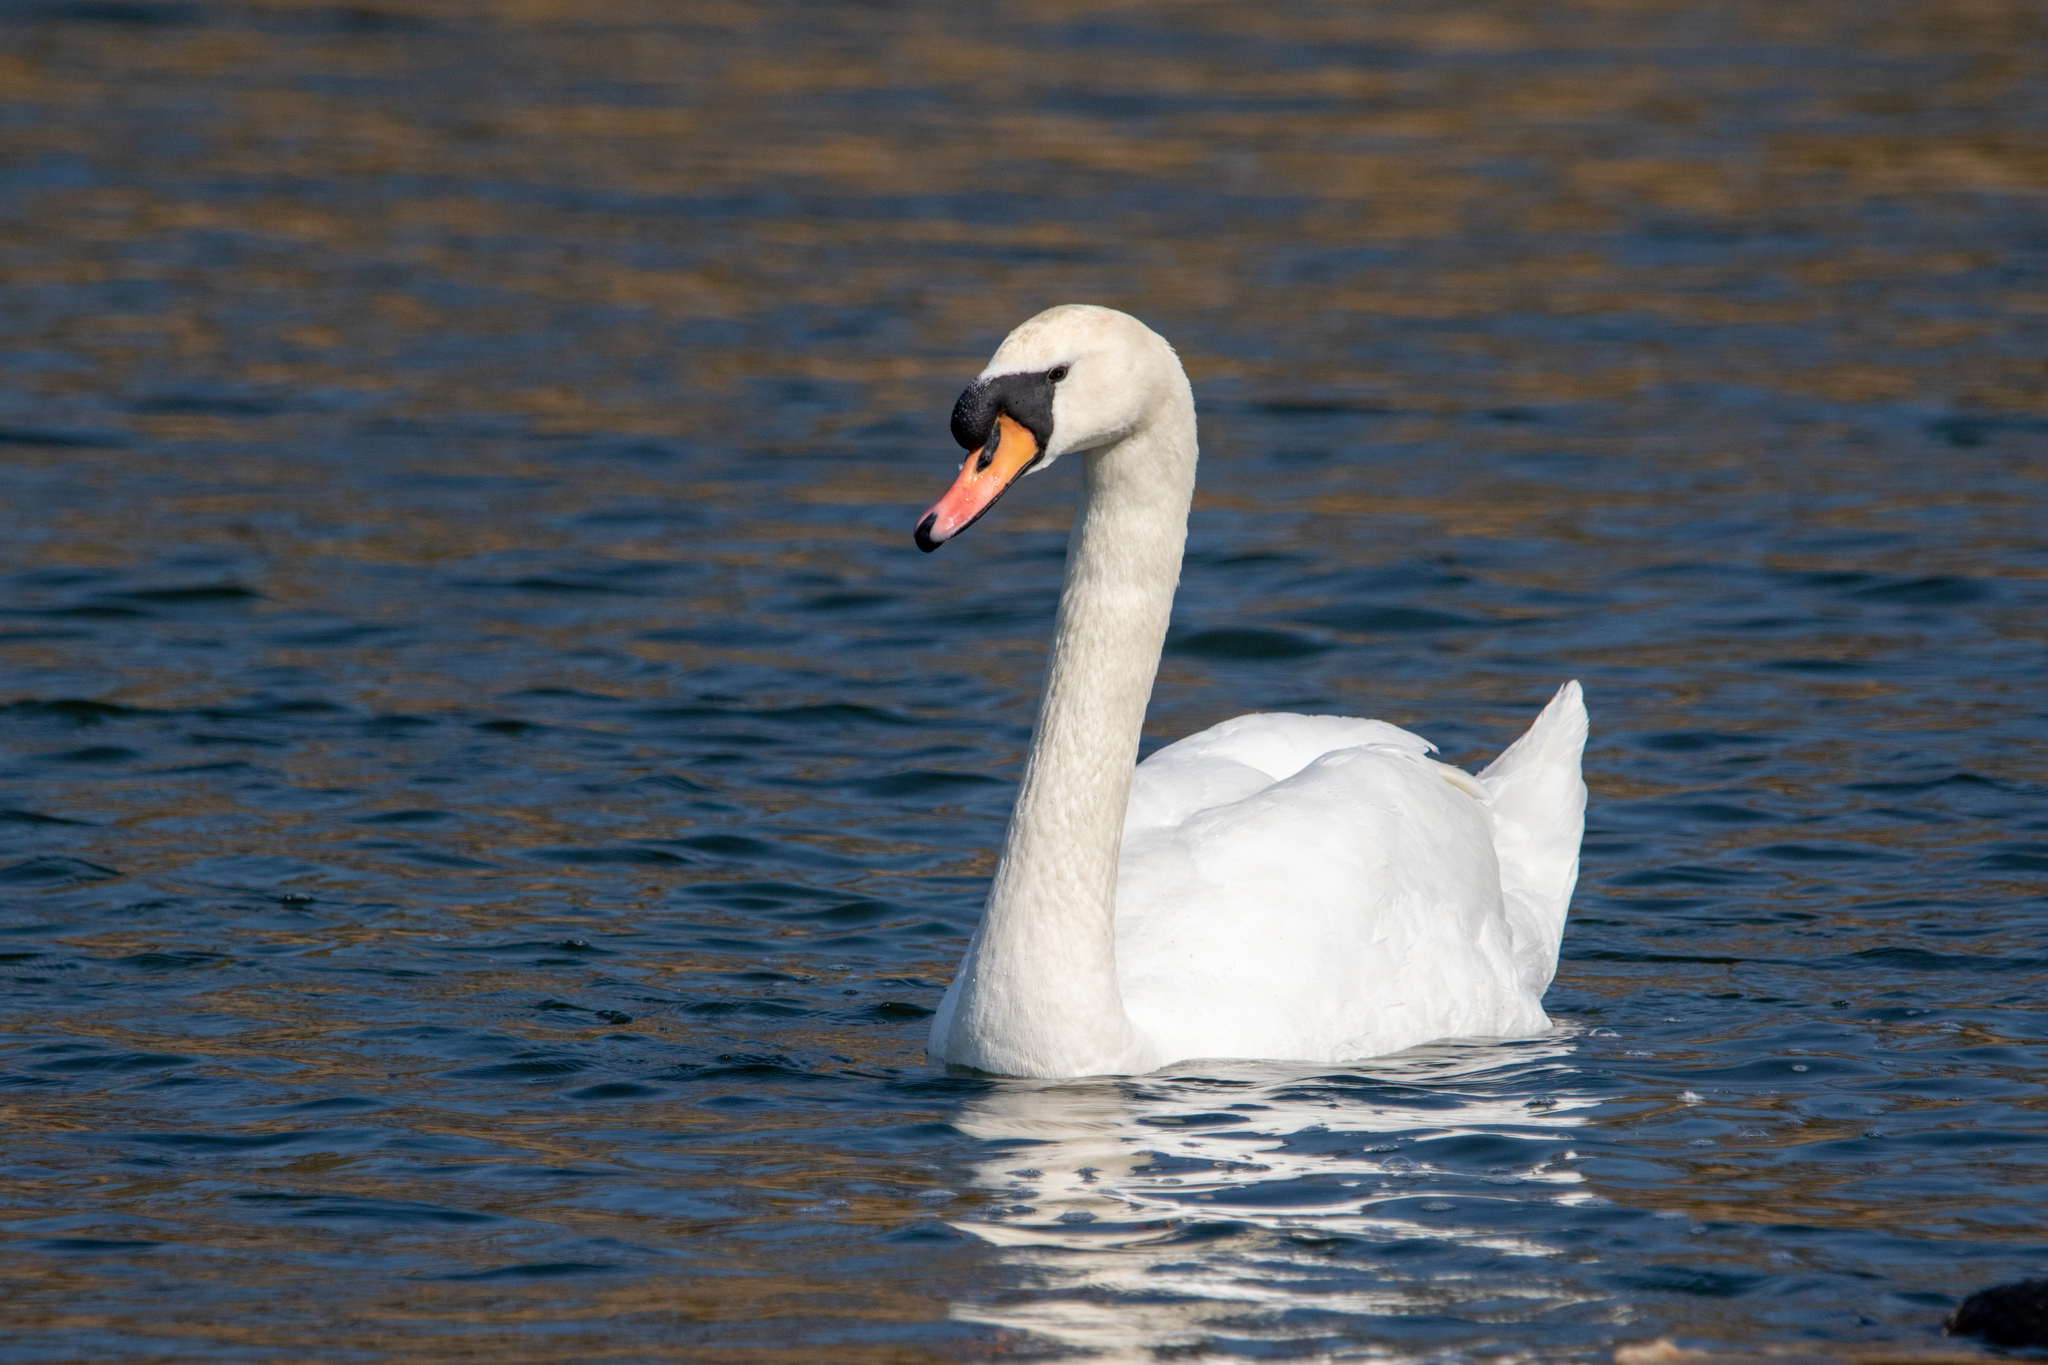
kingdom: Animalia
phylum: Chordata
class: Aves
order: Anseriformes
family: Anatidae
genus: Cygnus
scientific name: Cygnus olor
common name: Mute swan
